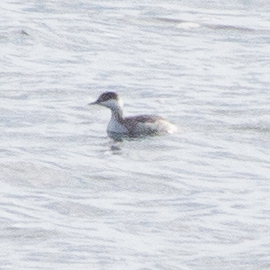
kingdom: Animalia
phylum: Chordata
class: Aves
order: Podicipediformes
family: Podicipedidae
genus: Podiceps
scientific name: Podiceps auritus
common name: Horned grebe
